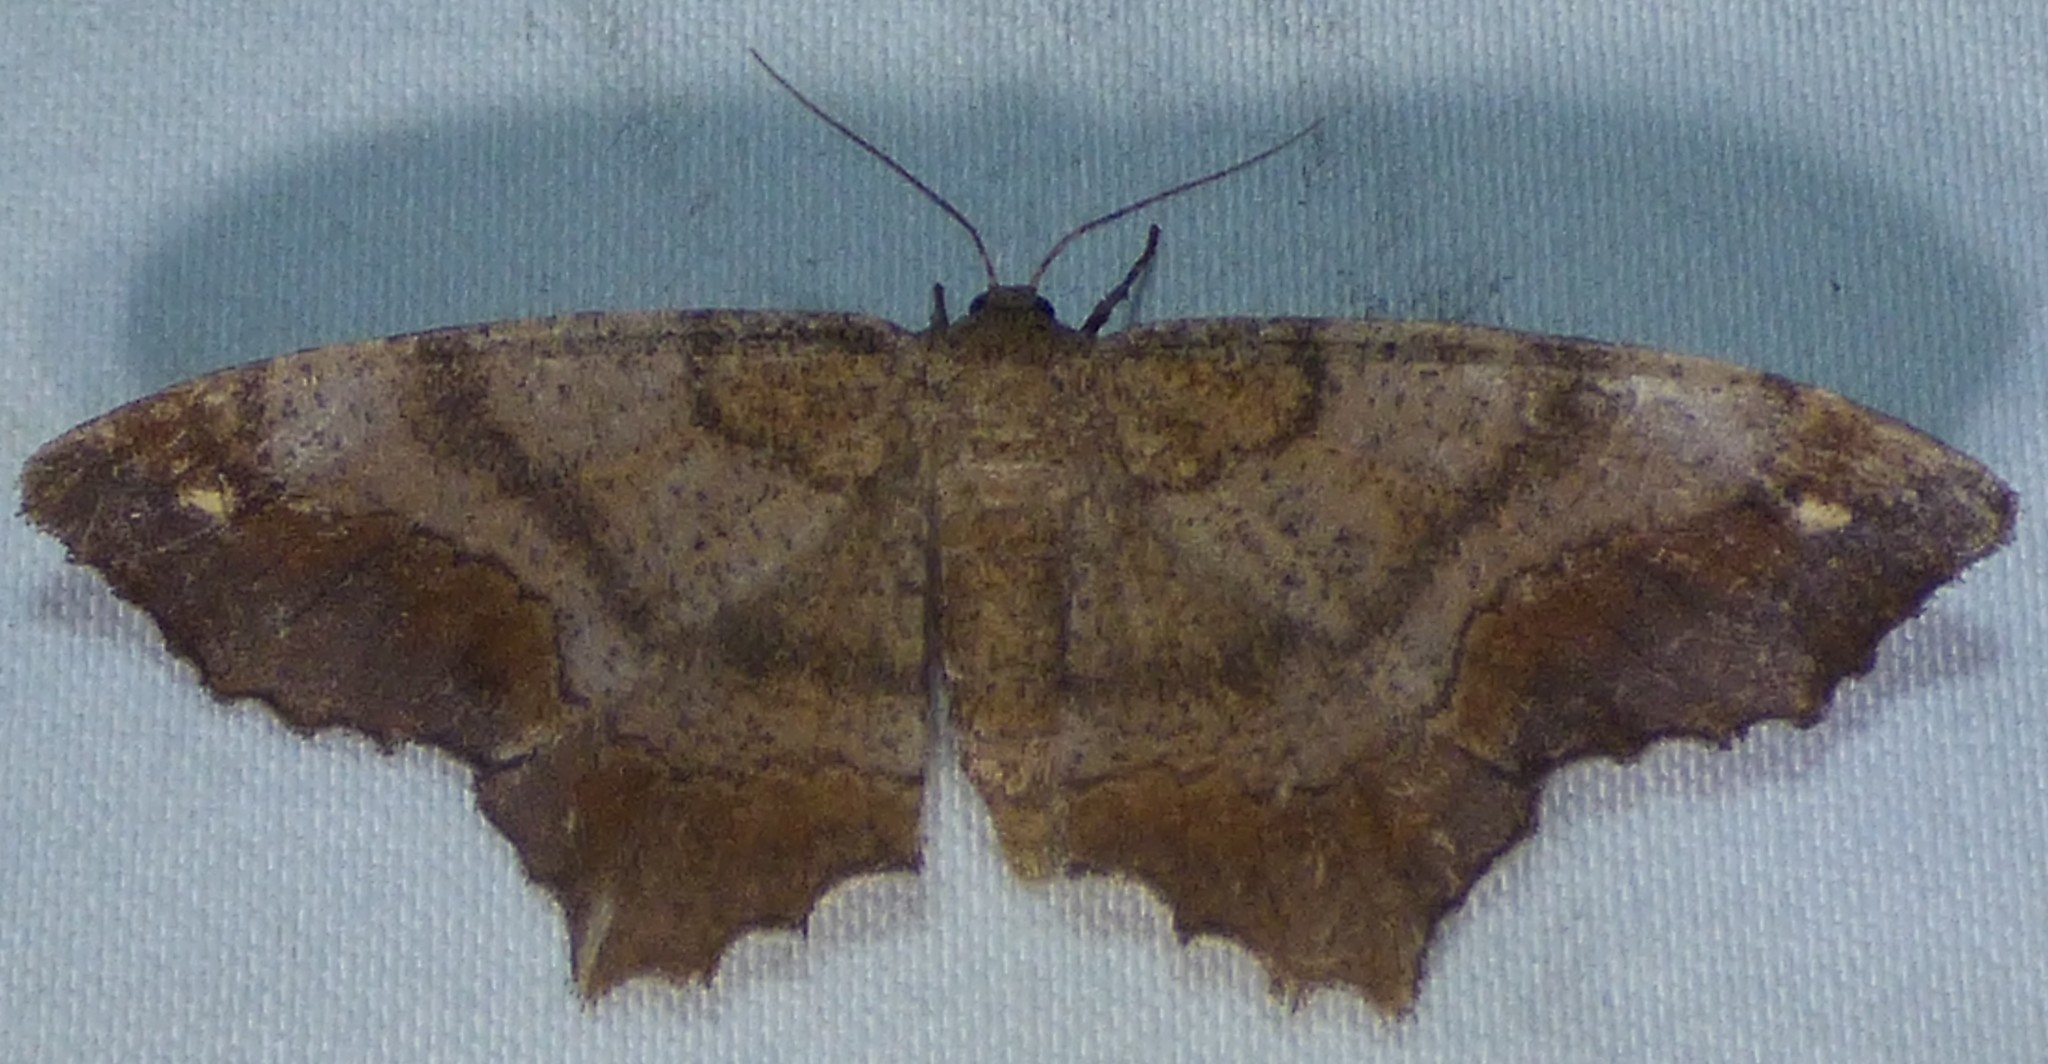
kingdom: Animalia
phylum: Arthropoda
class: Insecta
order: Lepidoptera
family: Geometridae
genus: Hypagyrtis
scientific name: Hypagyrtis esther
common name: Esther moth
